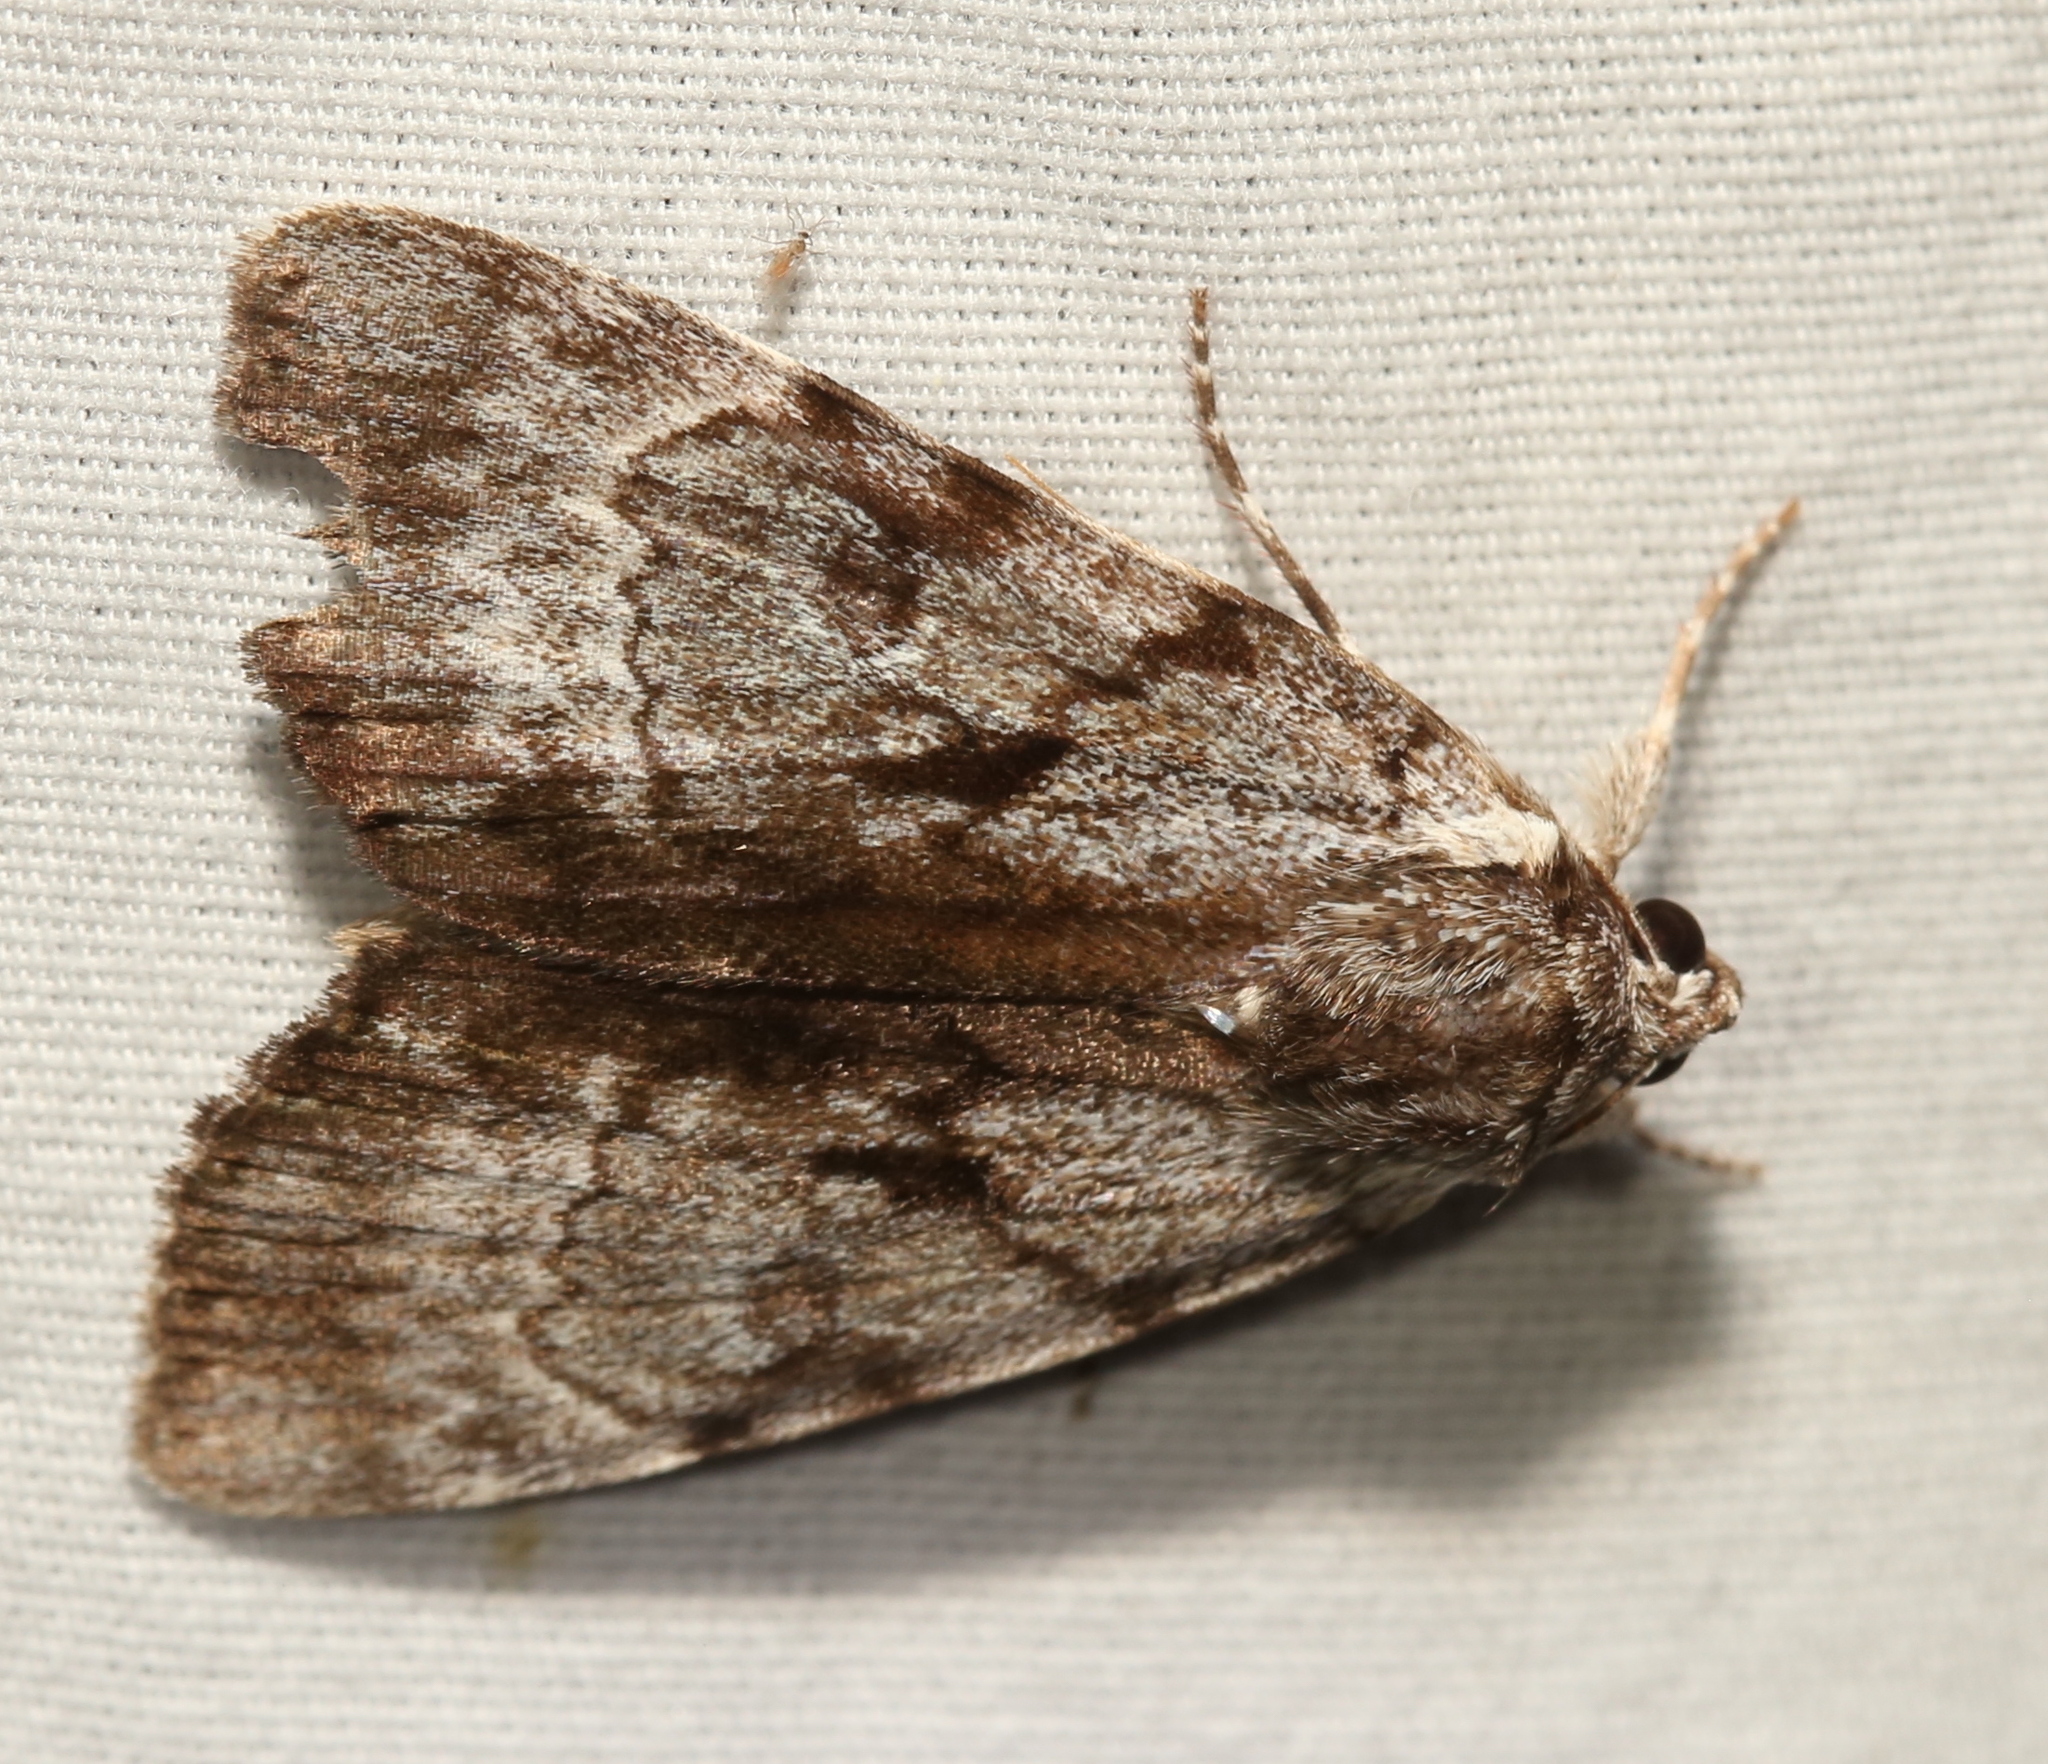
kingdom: Animalia
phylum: Arthropoda
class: Insecta
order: Lepidoptera
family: Erebidae
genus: Catocala
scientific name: Catocala andromedae
